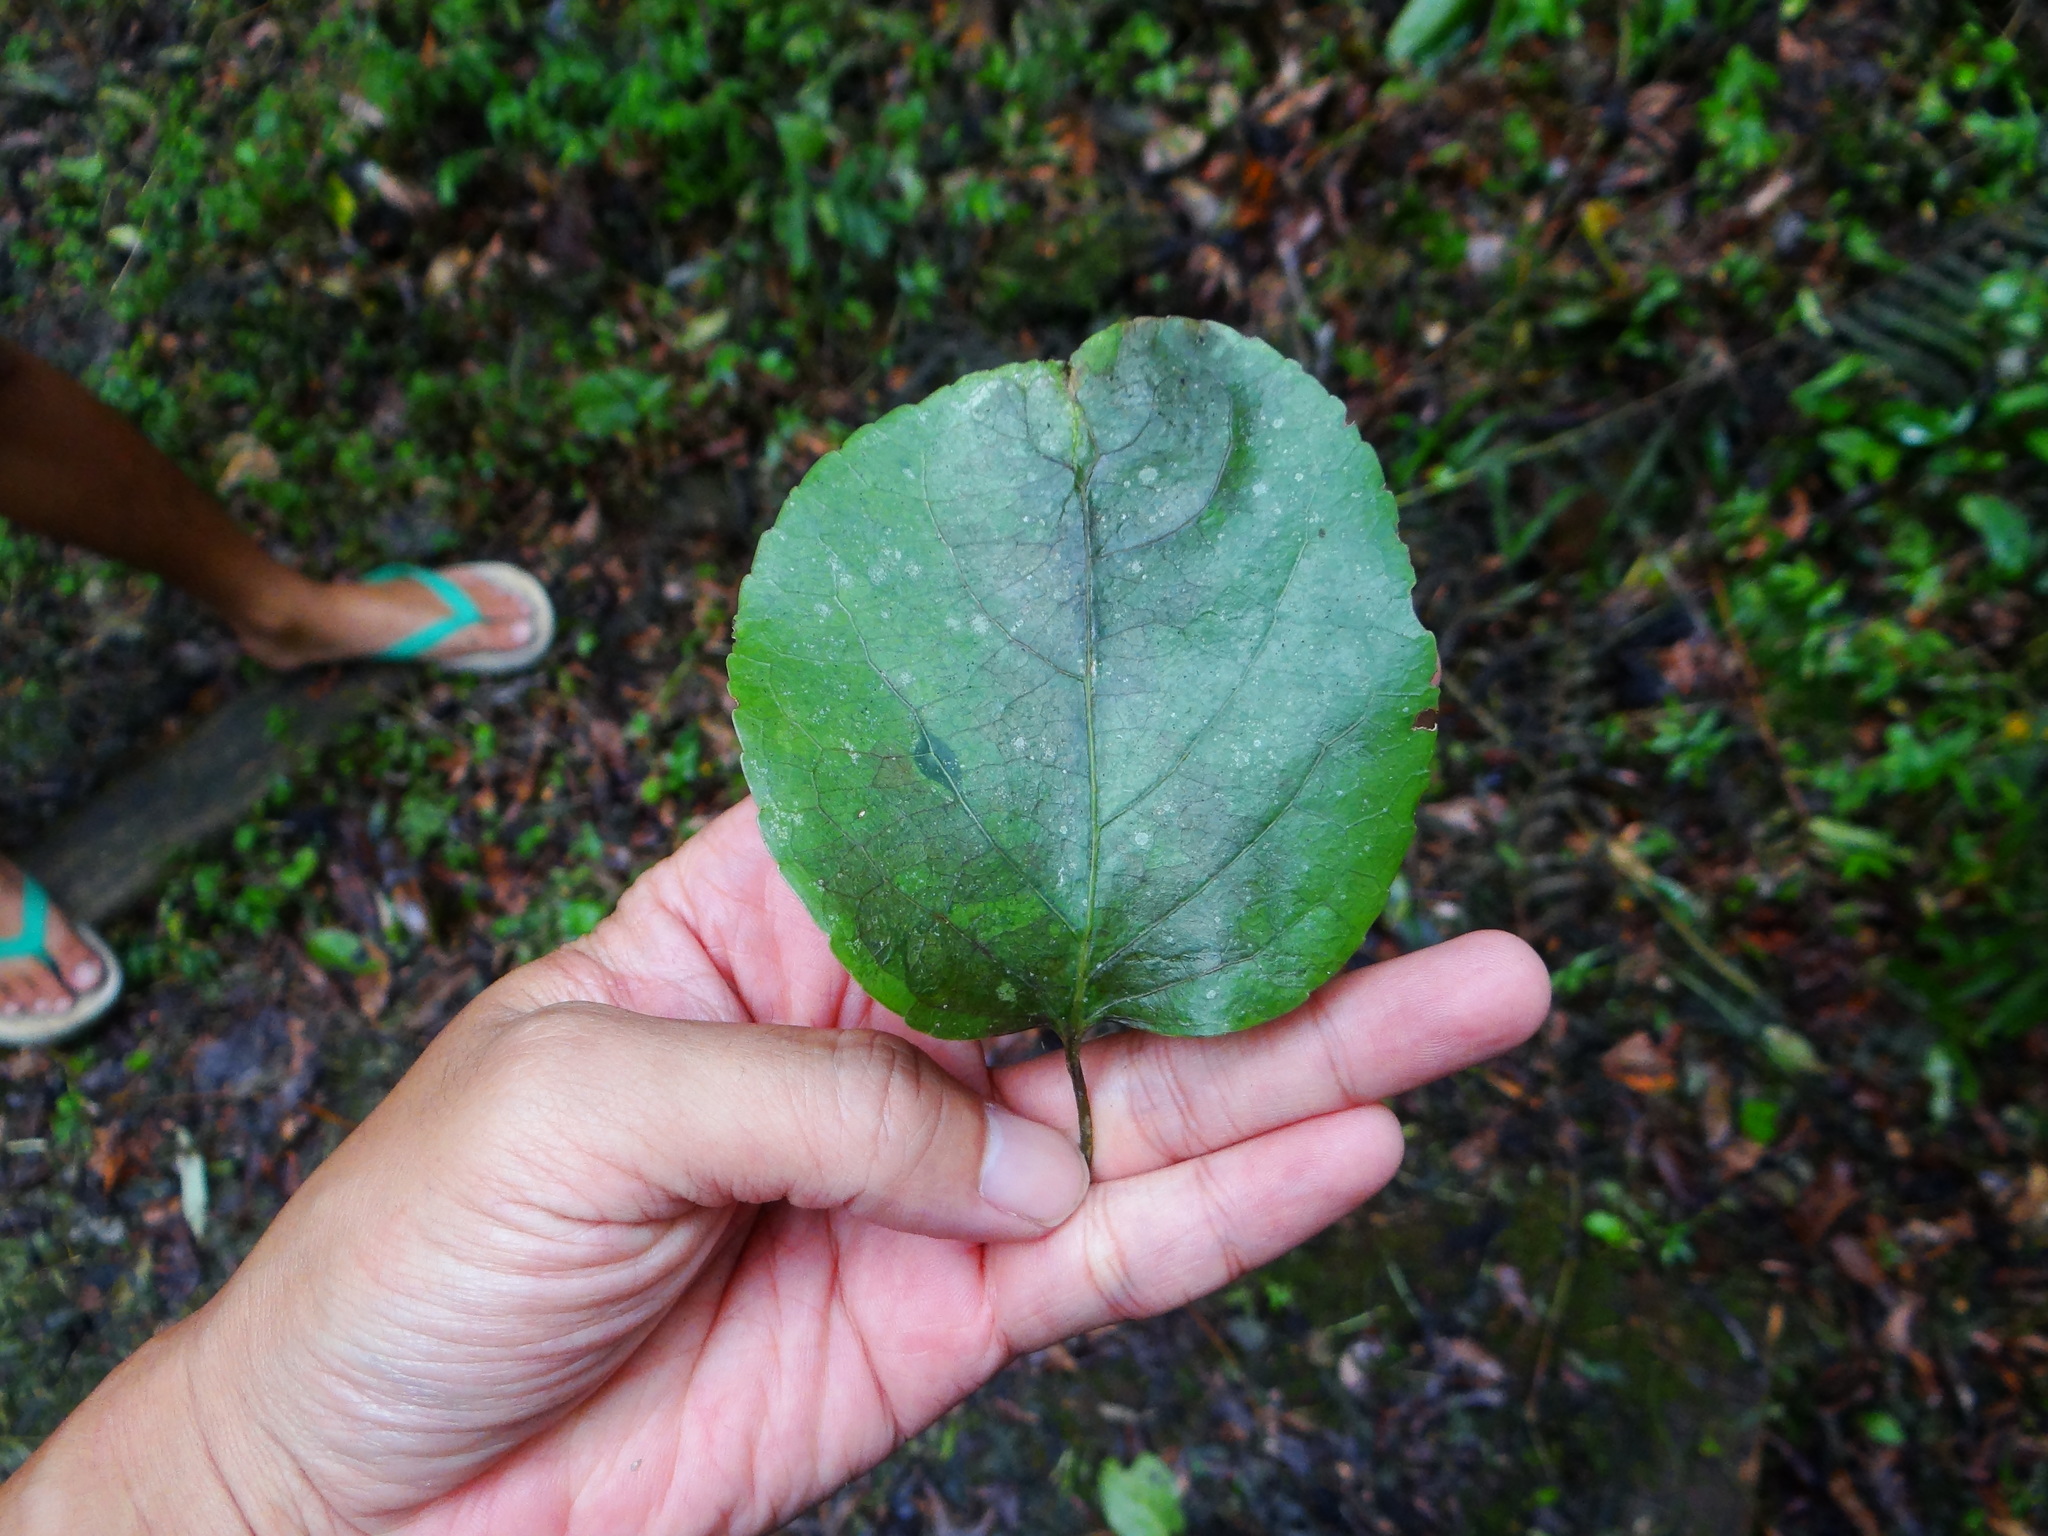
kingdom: Plantae
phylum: Tracheophyta
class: Magnoliopsida
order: Celastrales
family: Celastraceae
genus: Celastrus
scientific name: Celastrus kusanoi
